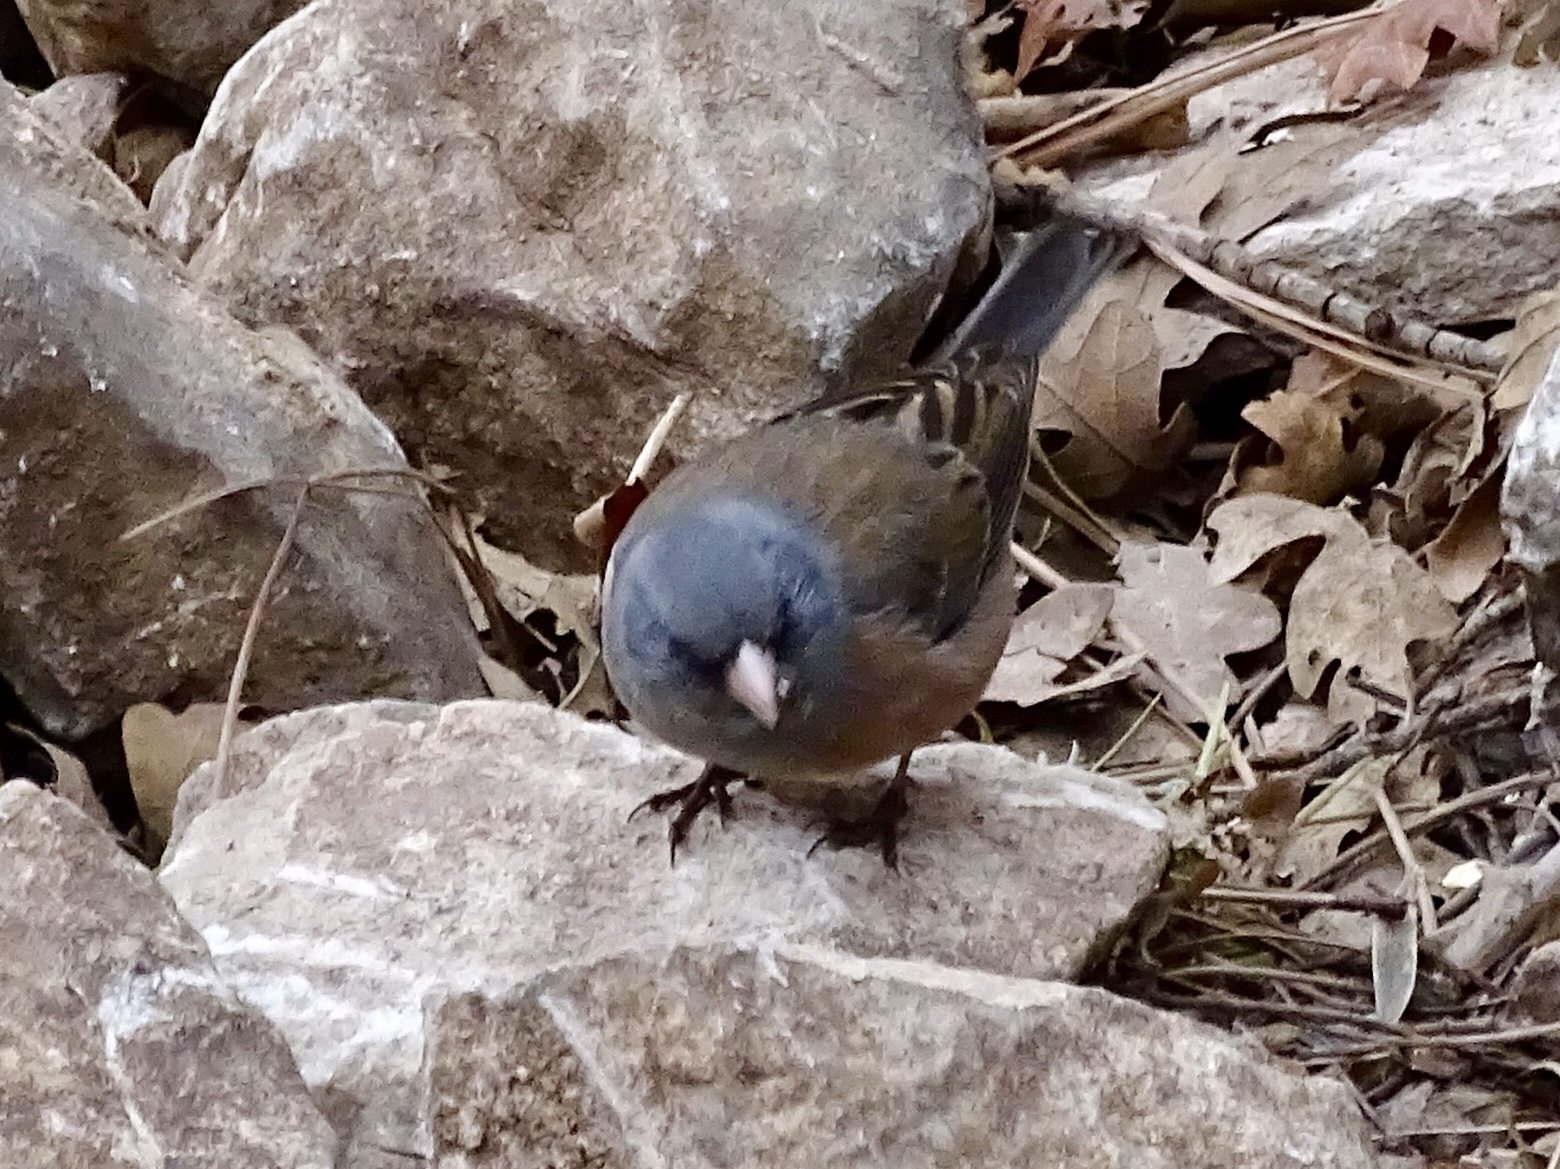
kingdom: Animalia
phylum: Chordata
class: Aves
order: Passeriformes
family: Passerellidae
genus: Junco
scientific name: Junco hyemalis
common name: Dark-eyed junco
